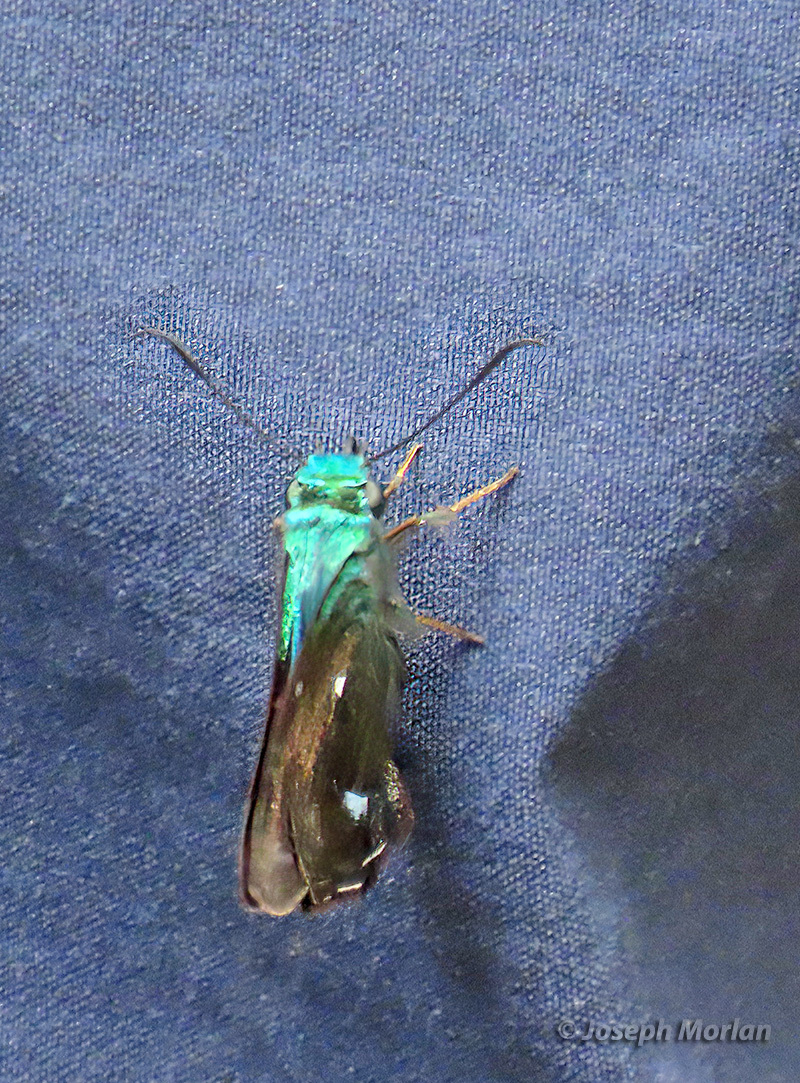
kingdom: Animalia
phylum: Arthropoda
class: Insecta
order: Lepidoptera
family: Hesperiidae
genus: Allora
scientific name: Allora doleschallii
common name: Peacock awl
